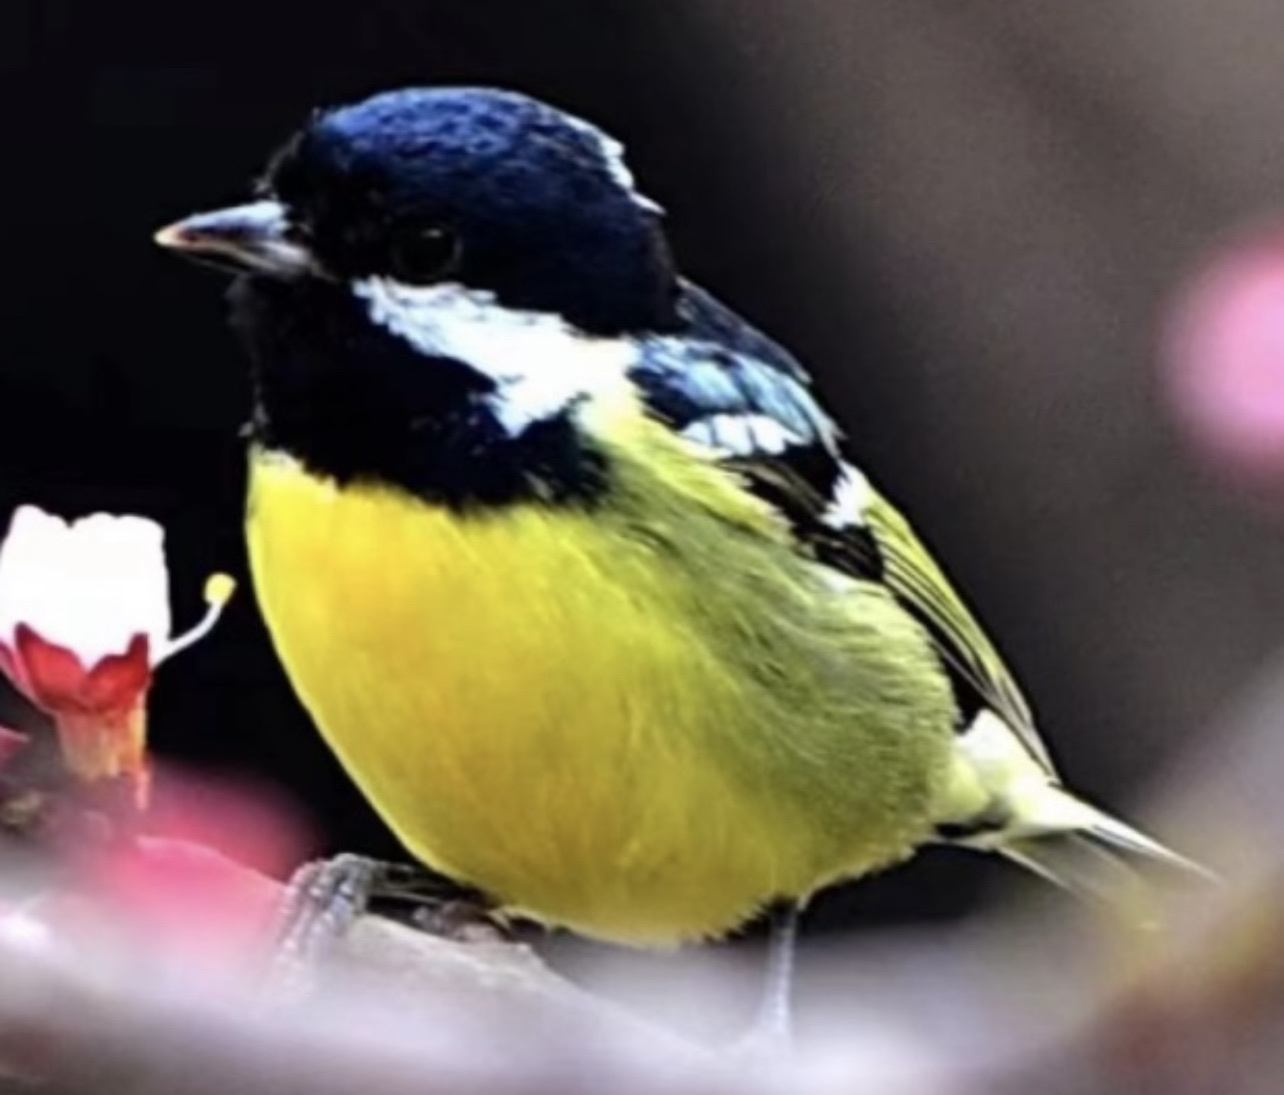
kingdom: Animalia
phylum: Chordata
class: Aves
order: Passeriformes
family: Paridae
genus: Periparus
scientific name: Periparus venustulus
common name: Yellow-bellied tit
